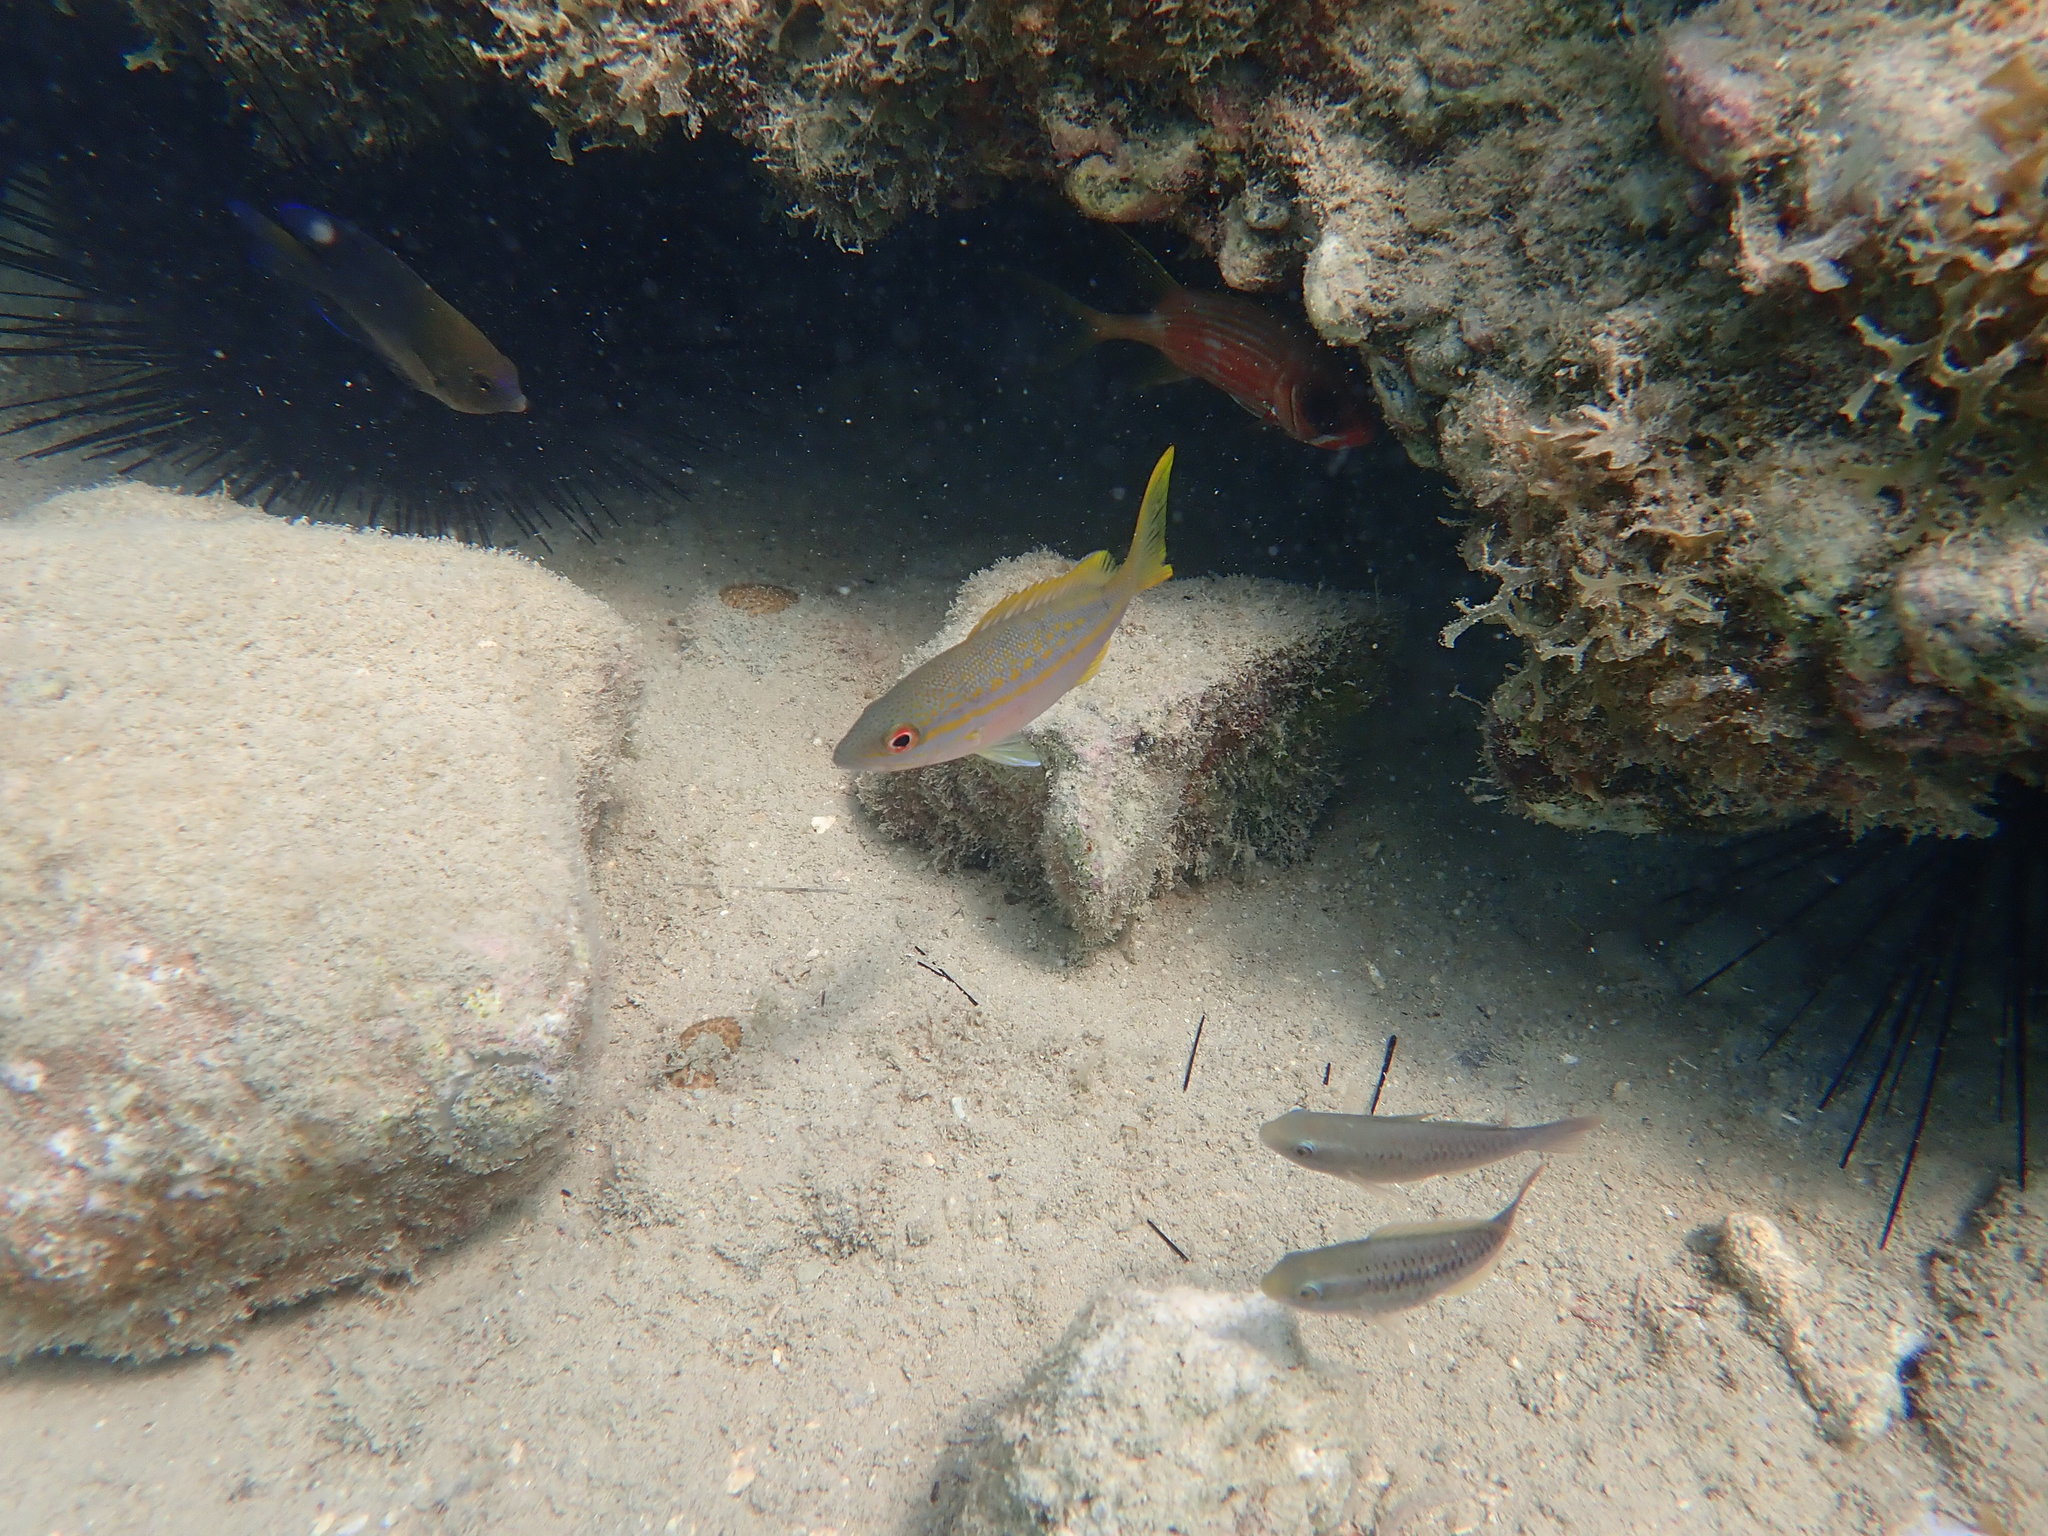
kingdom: Animalia
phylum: Chordata
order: Perciformes
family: Scaridae
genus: Scarus
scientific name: Scarus iseri
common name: Striped parrotfish
